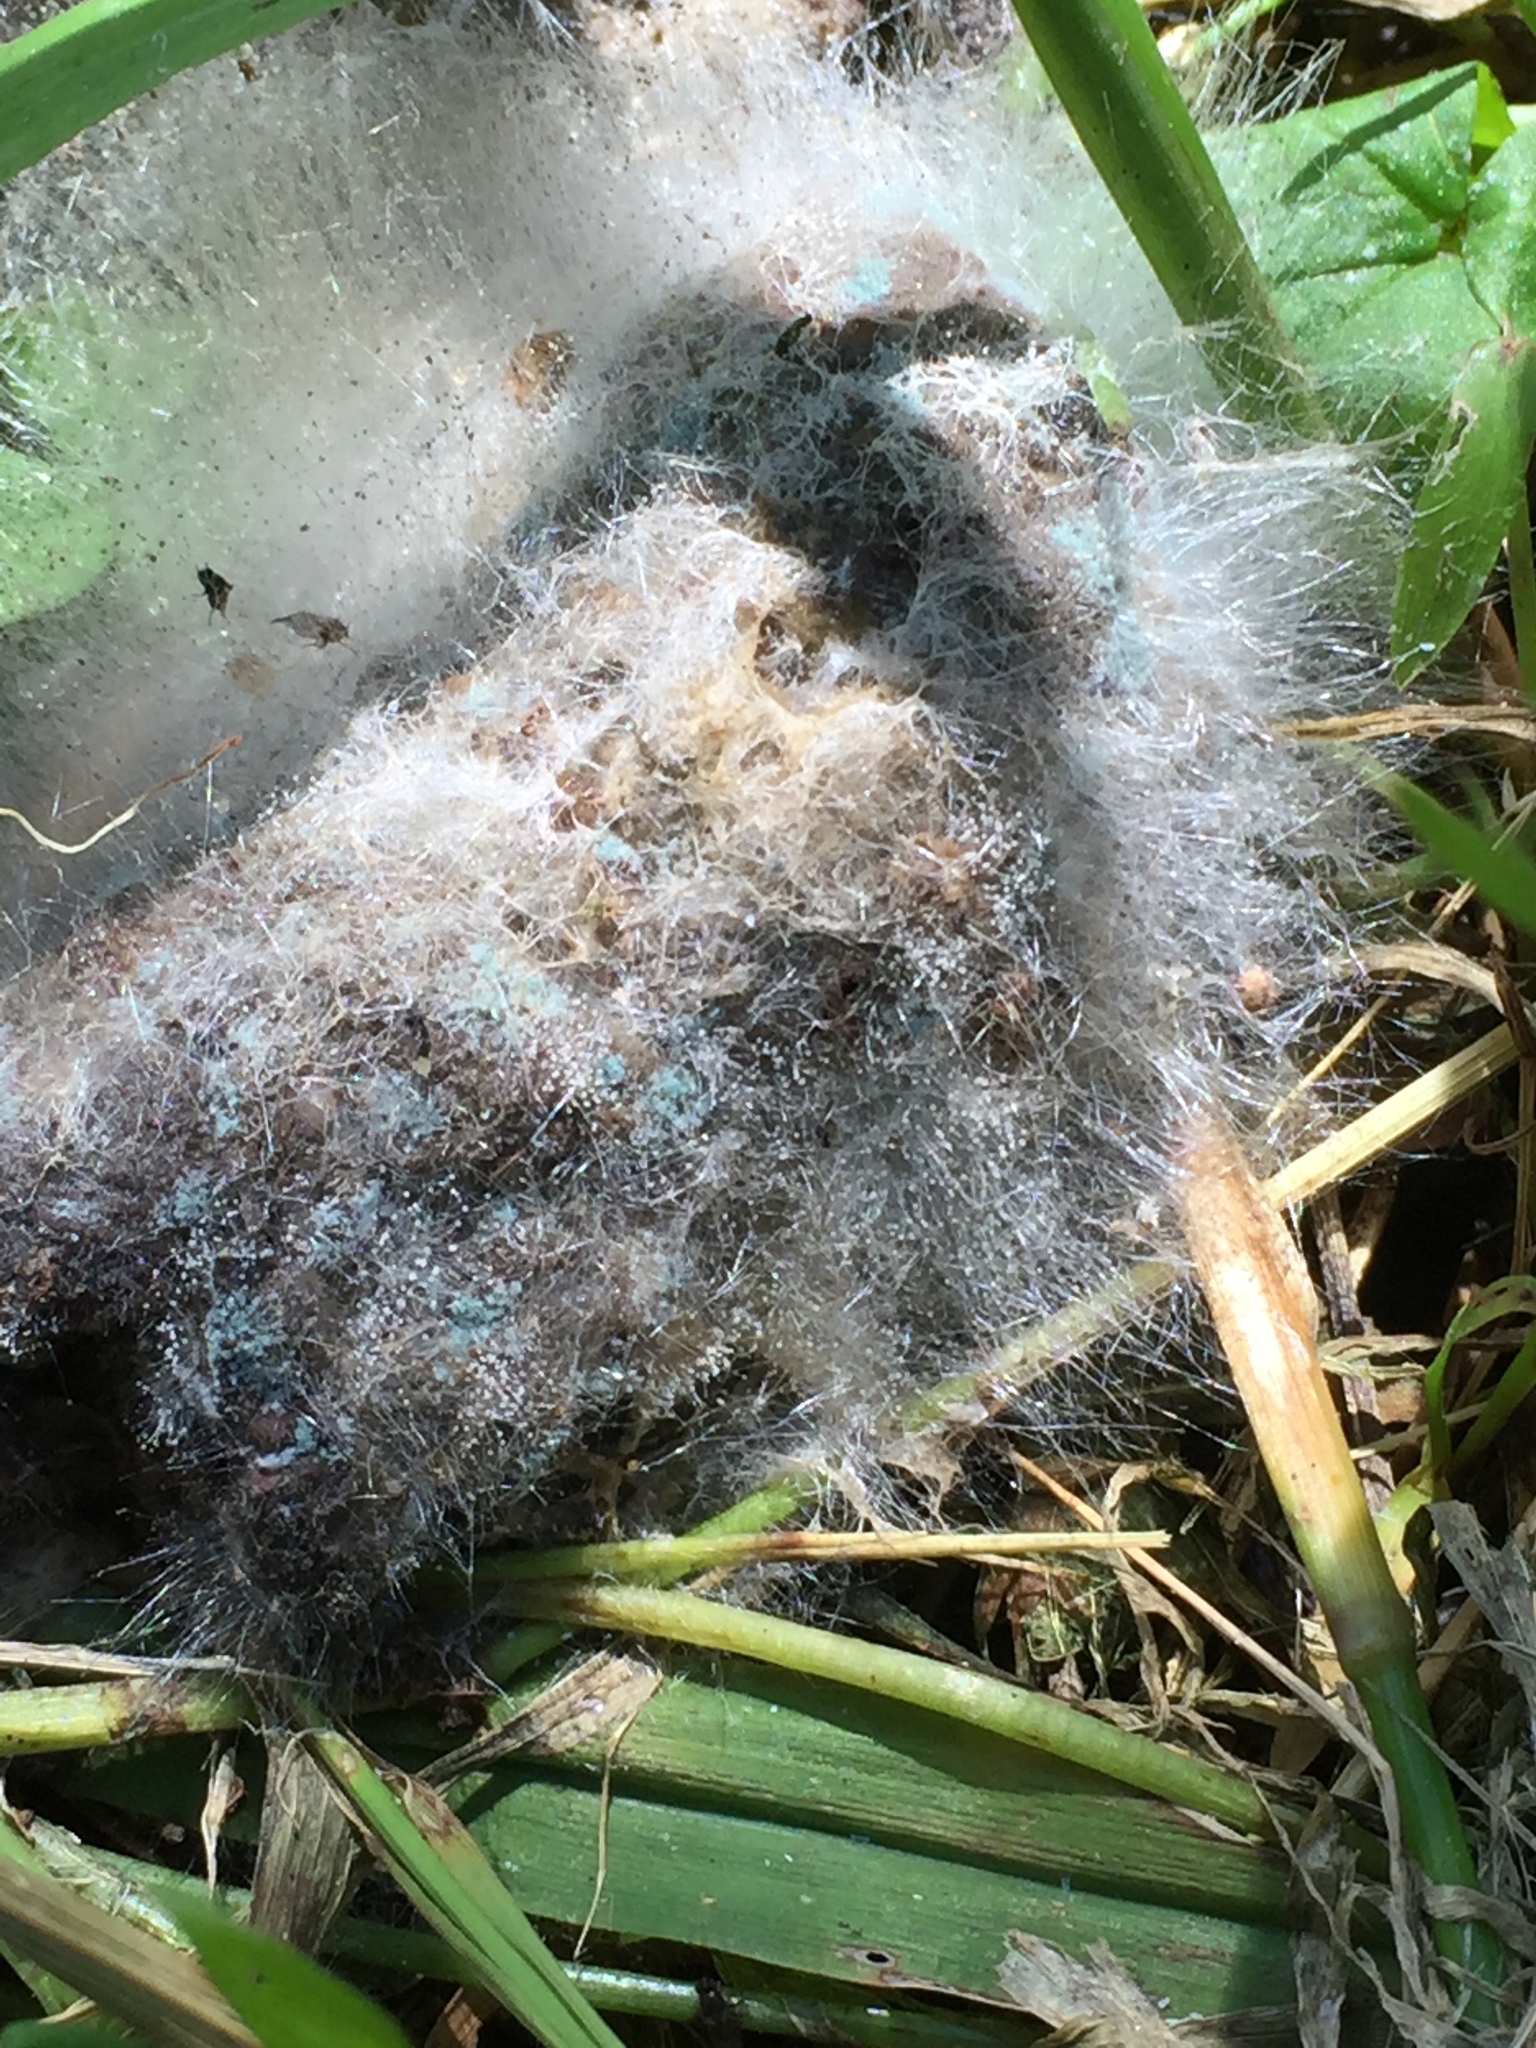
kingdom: Fungi
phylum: Mucoromycota
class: Mucoromycetes
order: Mucorales
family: Phycomycetaceae
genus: Phycomyces
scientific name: Phycomyces blakesleeanus
